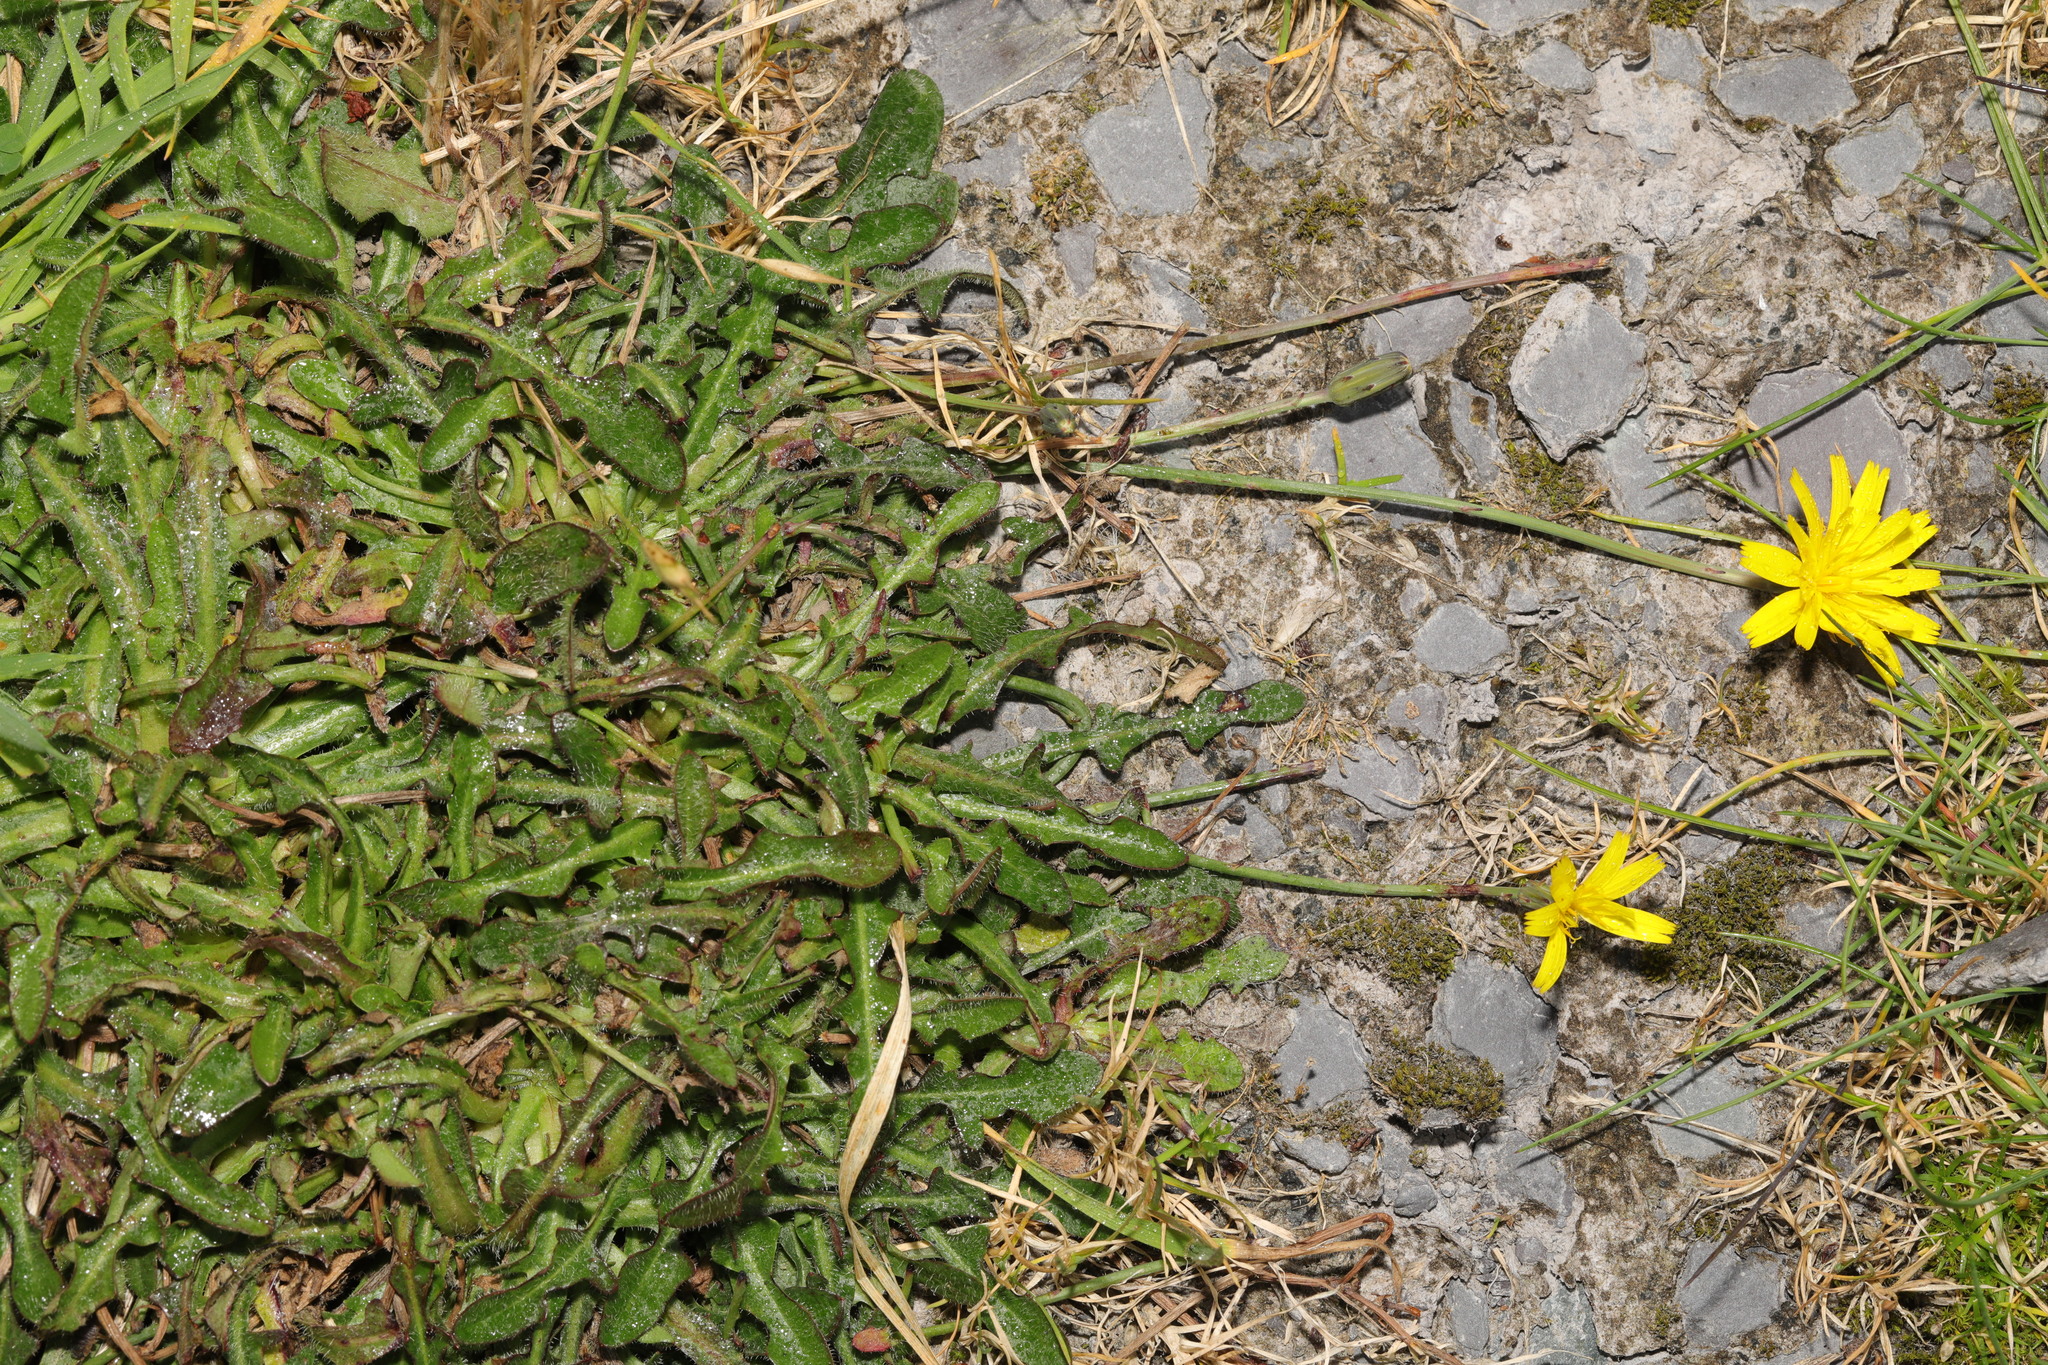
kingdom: Plantae
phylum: Tracheophyta
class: Magnoliopsida
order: Asterales
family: Asteraceae
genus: Hypochaeris
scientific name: Hypochaeris radicata
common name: Flatweed
